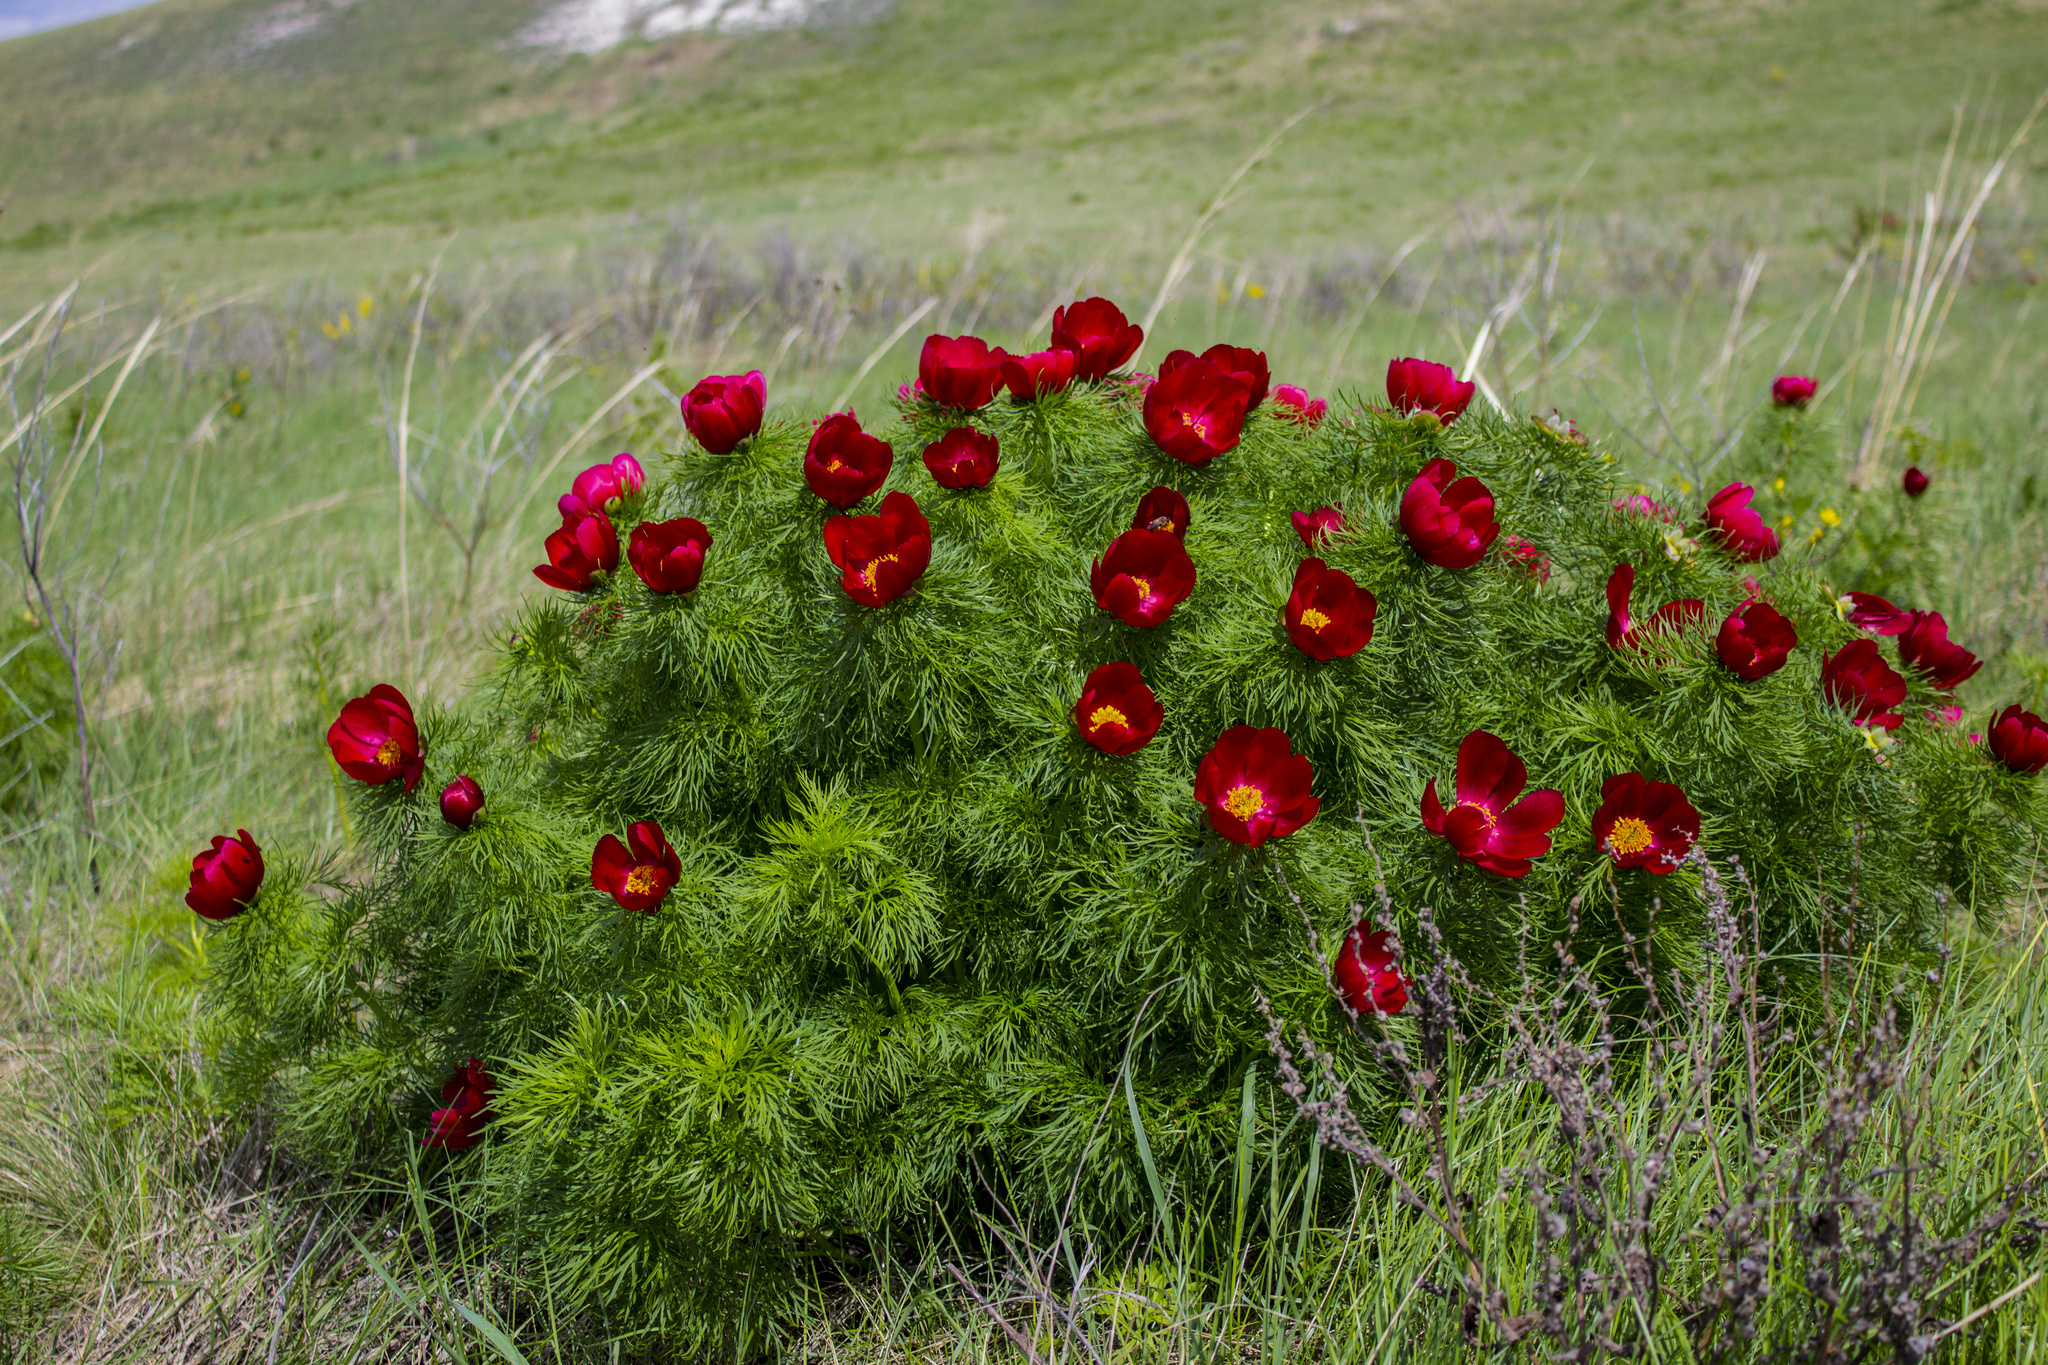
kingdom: Plantae
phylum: Tracheophyta
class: Magnoliopsida
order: Saxifragales
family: Paeoniaceae
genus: Paeonia
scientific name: Paeonia tenuifolia
